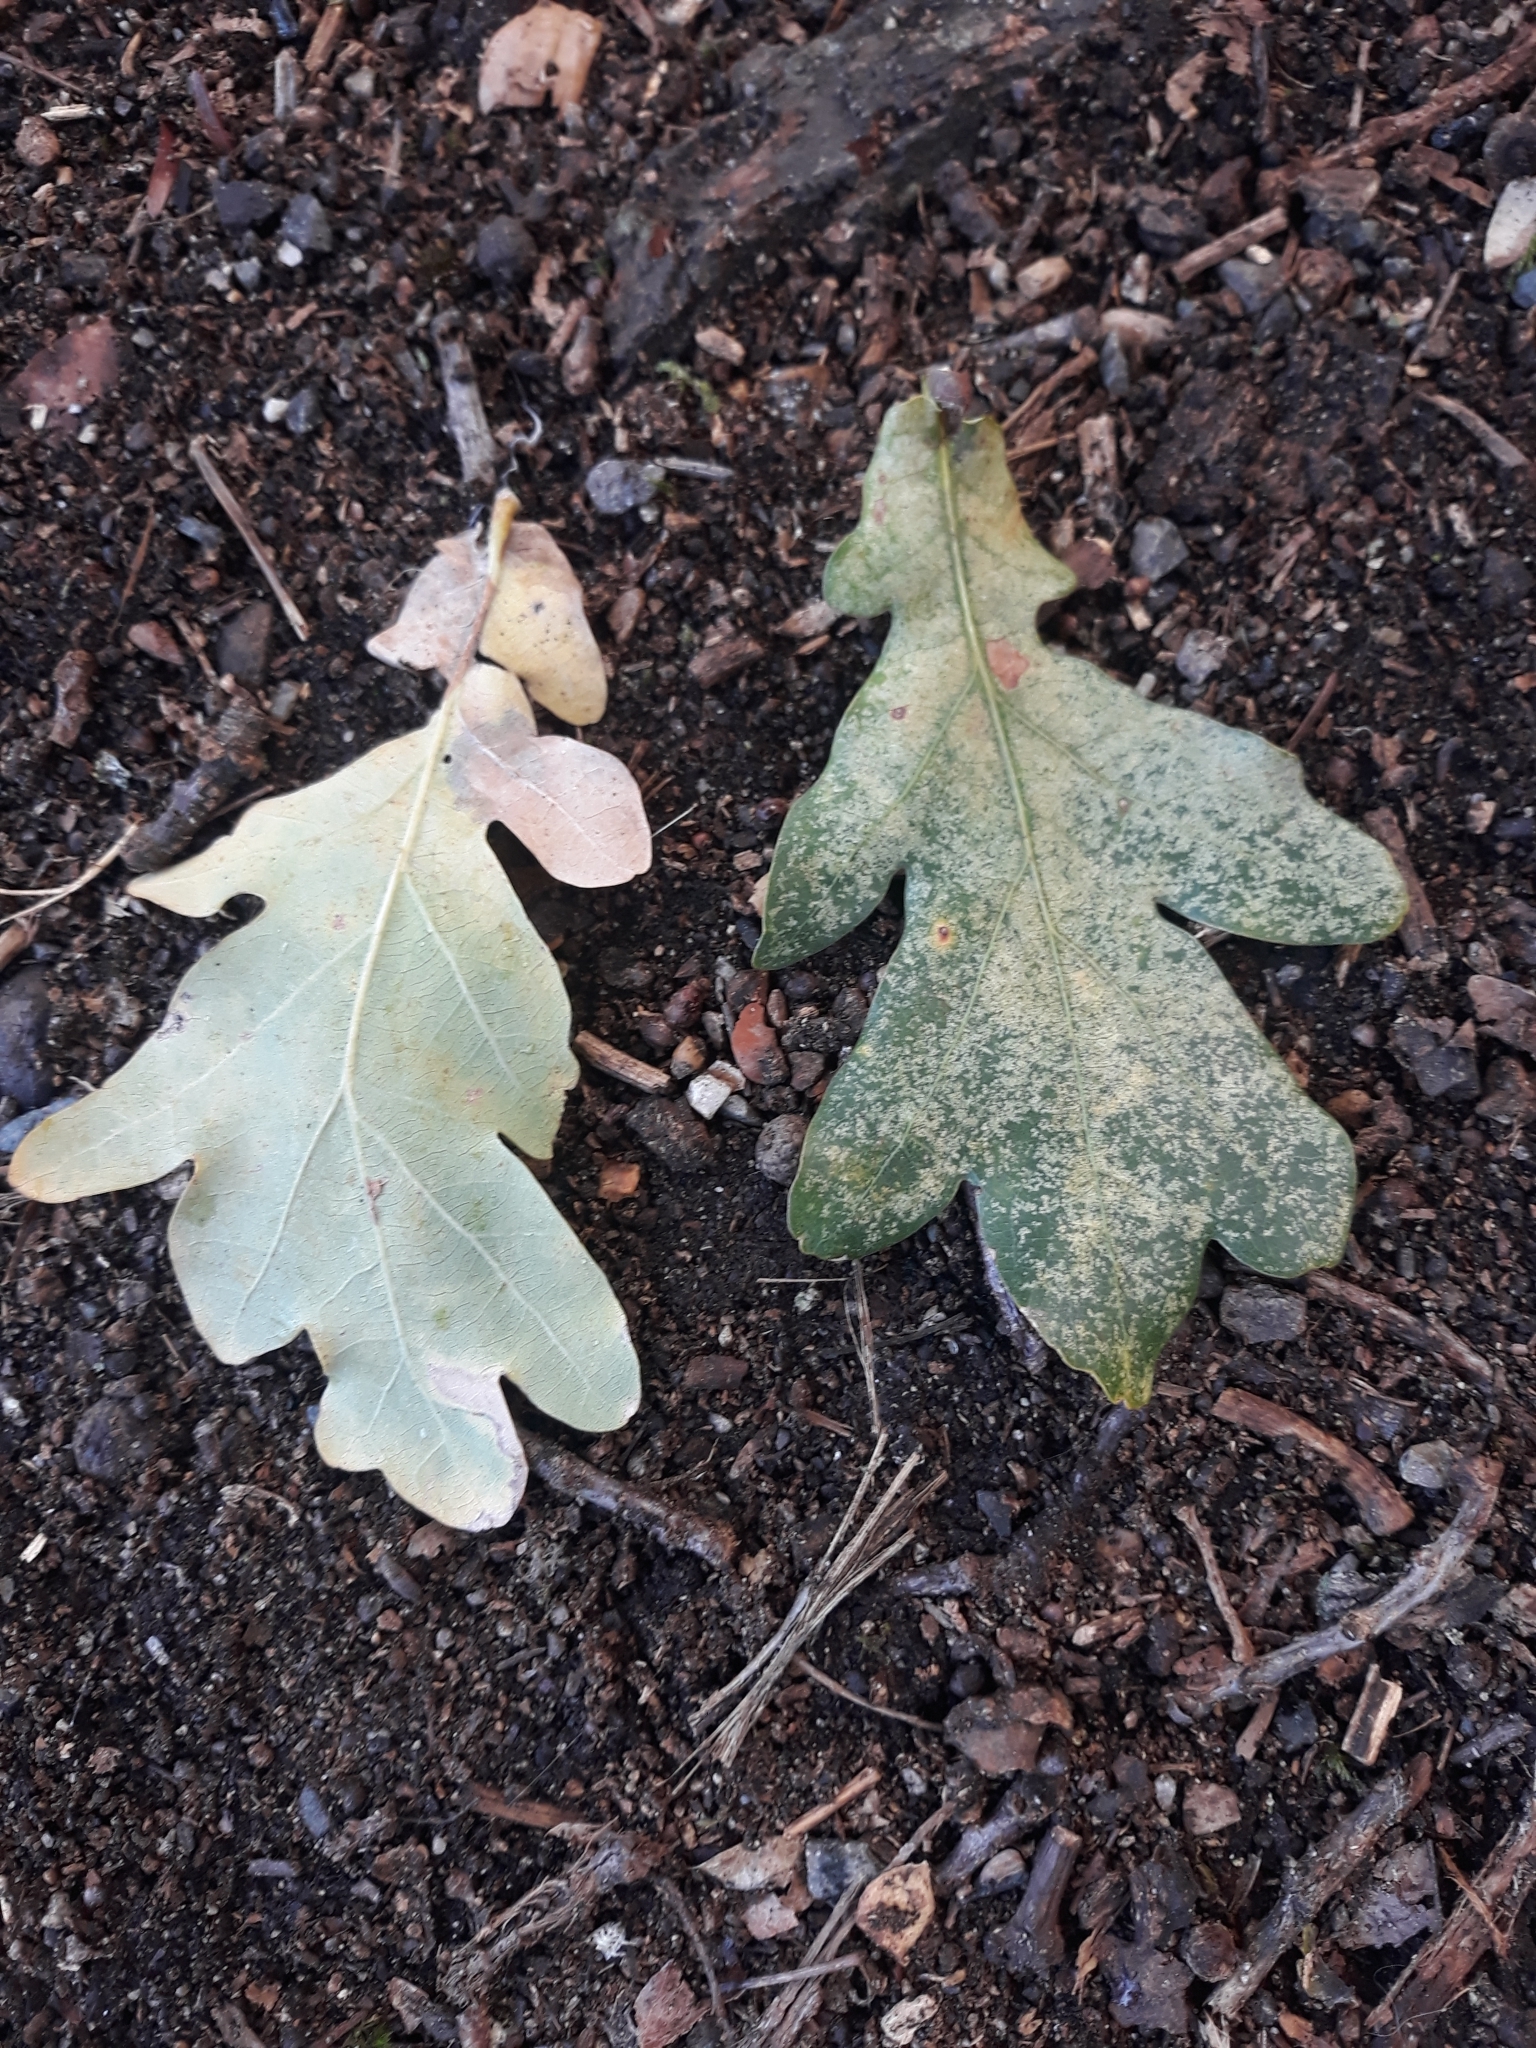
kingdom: Plantae
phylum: Tracheophyta
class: Magnoliopsida
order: Fagales
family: Fagaceae
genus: Quercus
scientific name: Quercus robur
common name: Pedunculate oak
